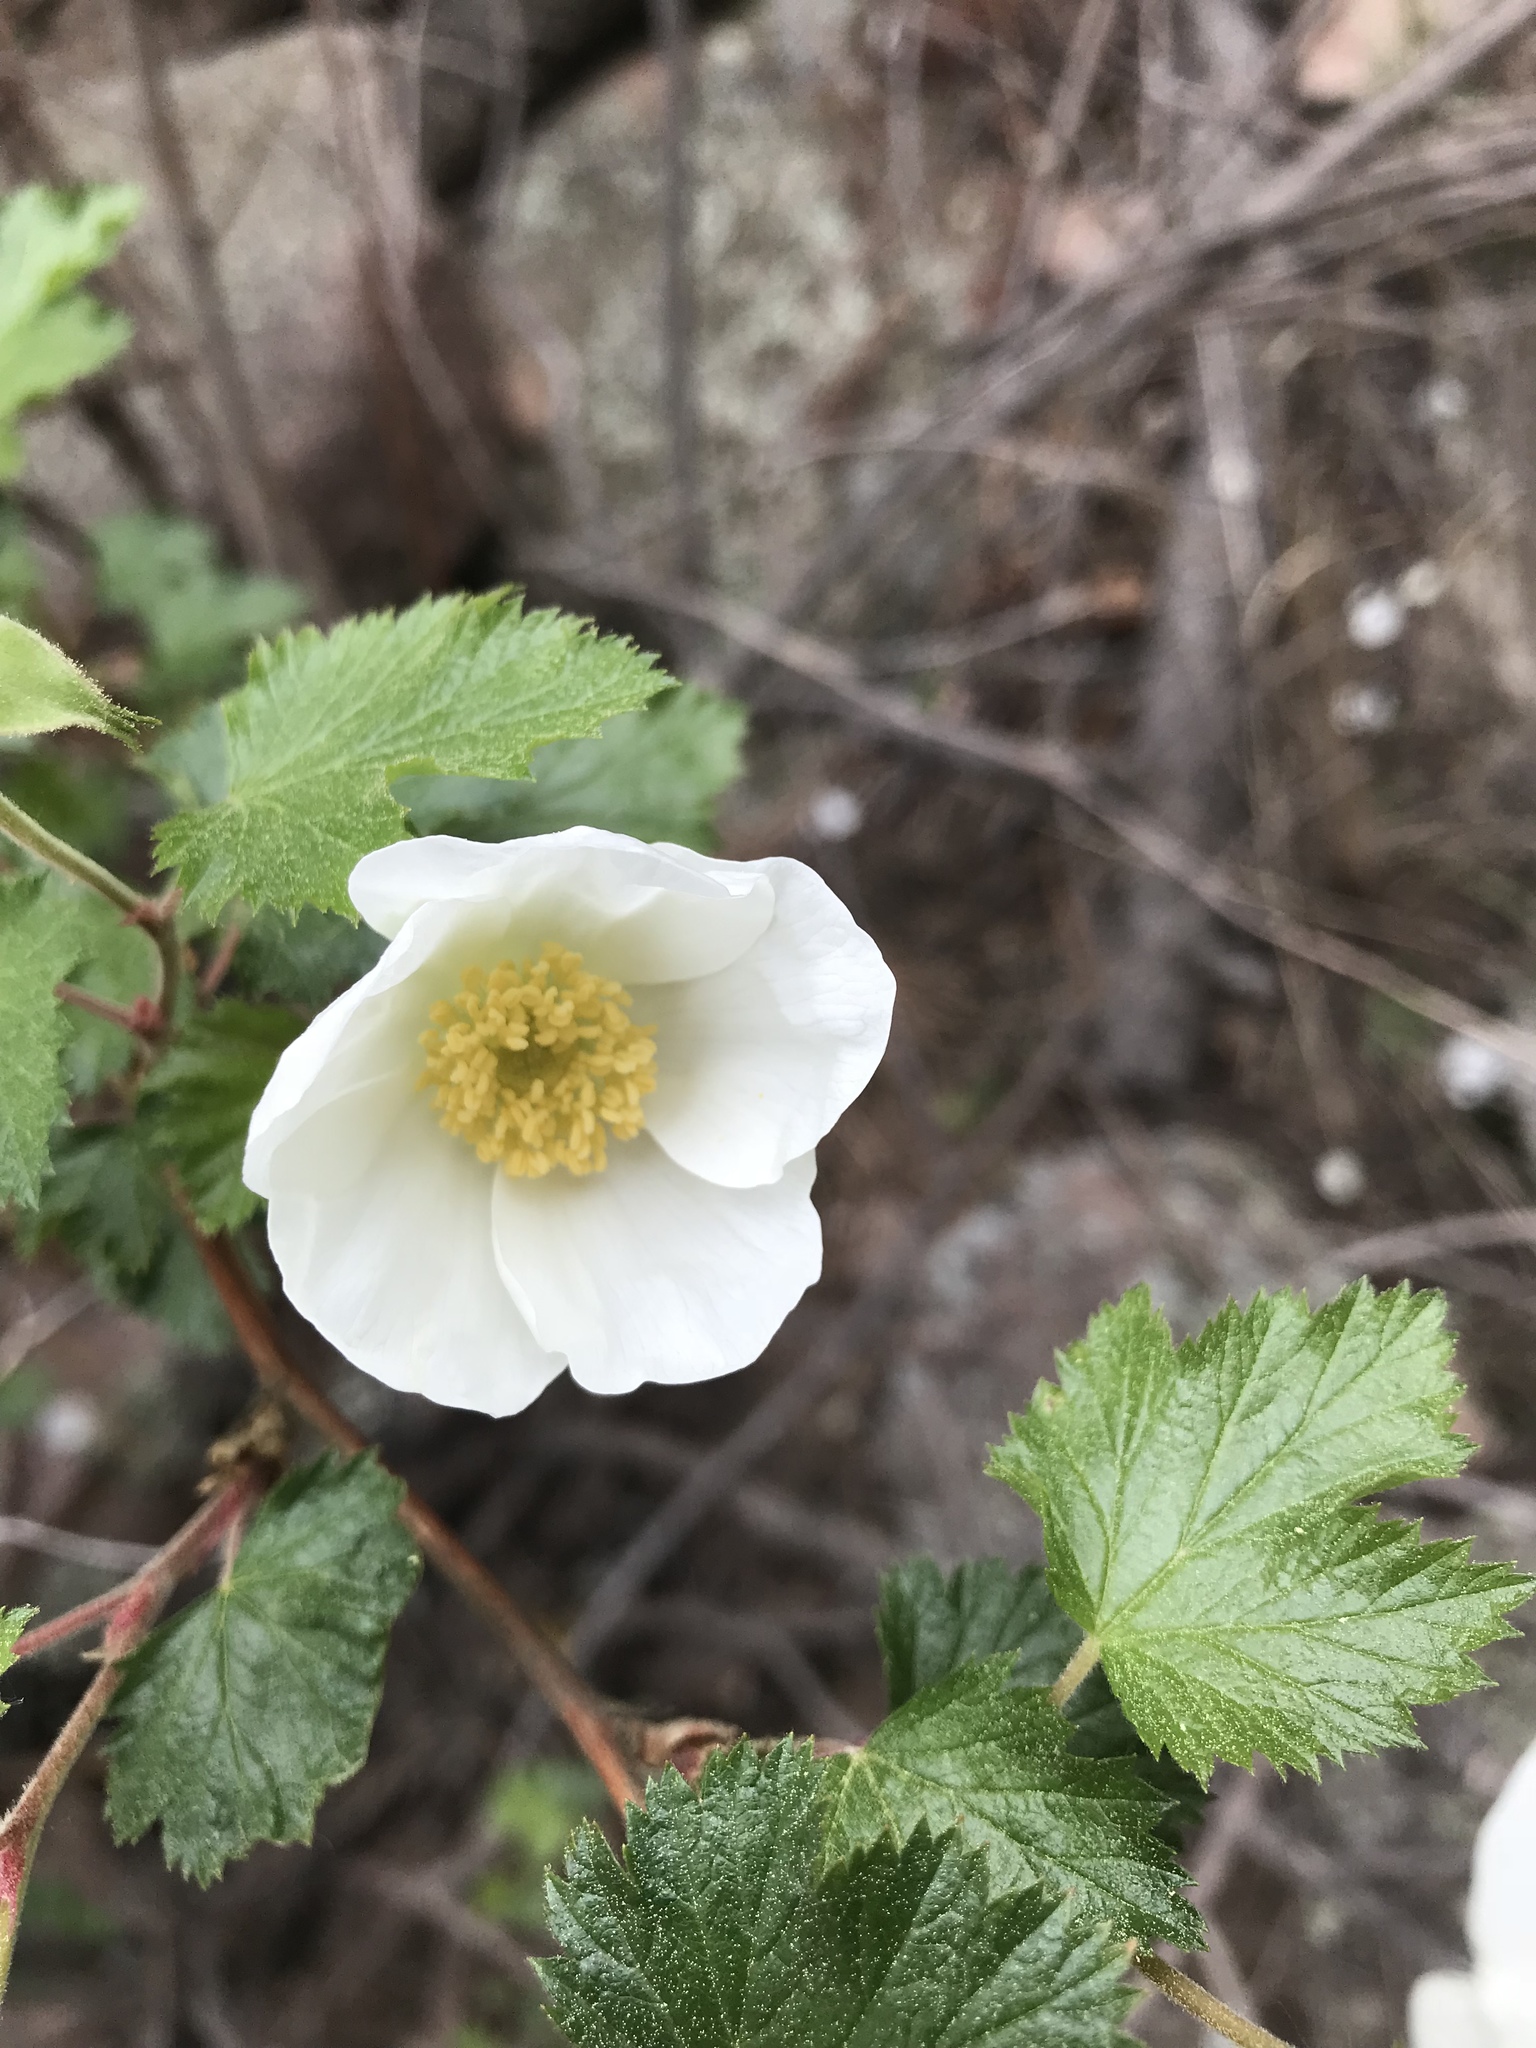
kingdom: Plantae
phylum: Tracheophyta
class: Magnoliopsida
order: Rosales
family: Rosaceae
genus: Rubus
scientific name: Rubus deliciosus
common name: Rocky mountain raspberry
